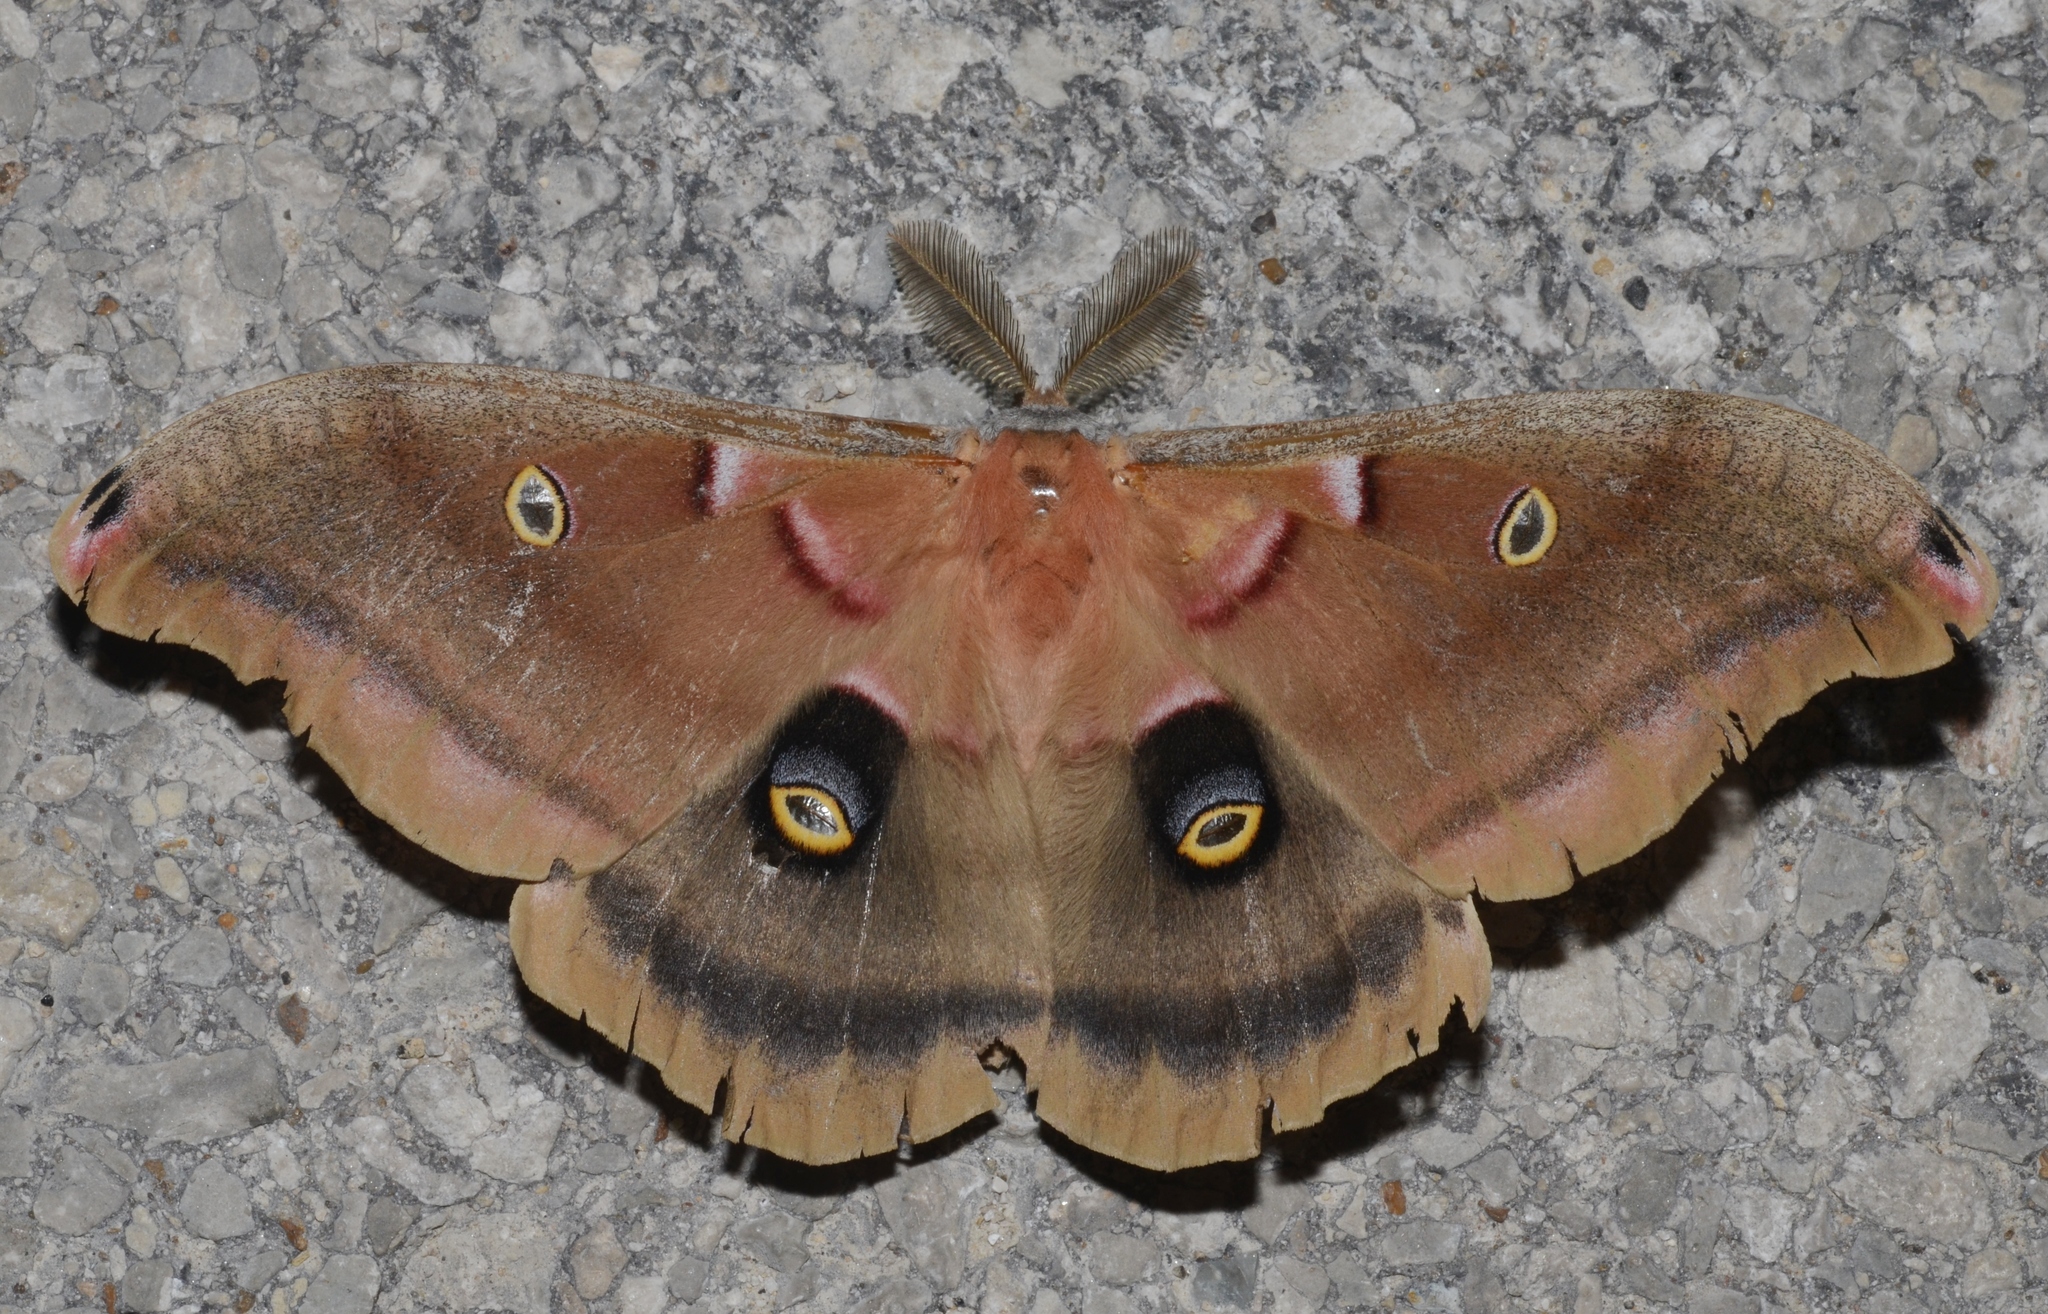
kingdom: Animalia
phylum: Arthropoda
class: Insecta
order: Lepidoptera
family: Saturniidae
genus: Antheraea
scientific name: Antheraea polyphemus
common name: Polyphemus moth
